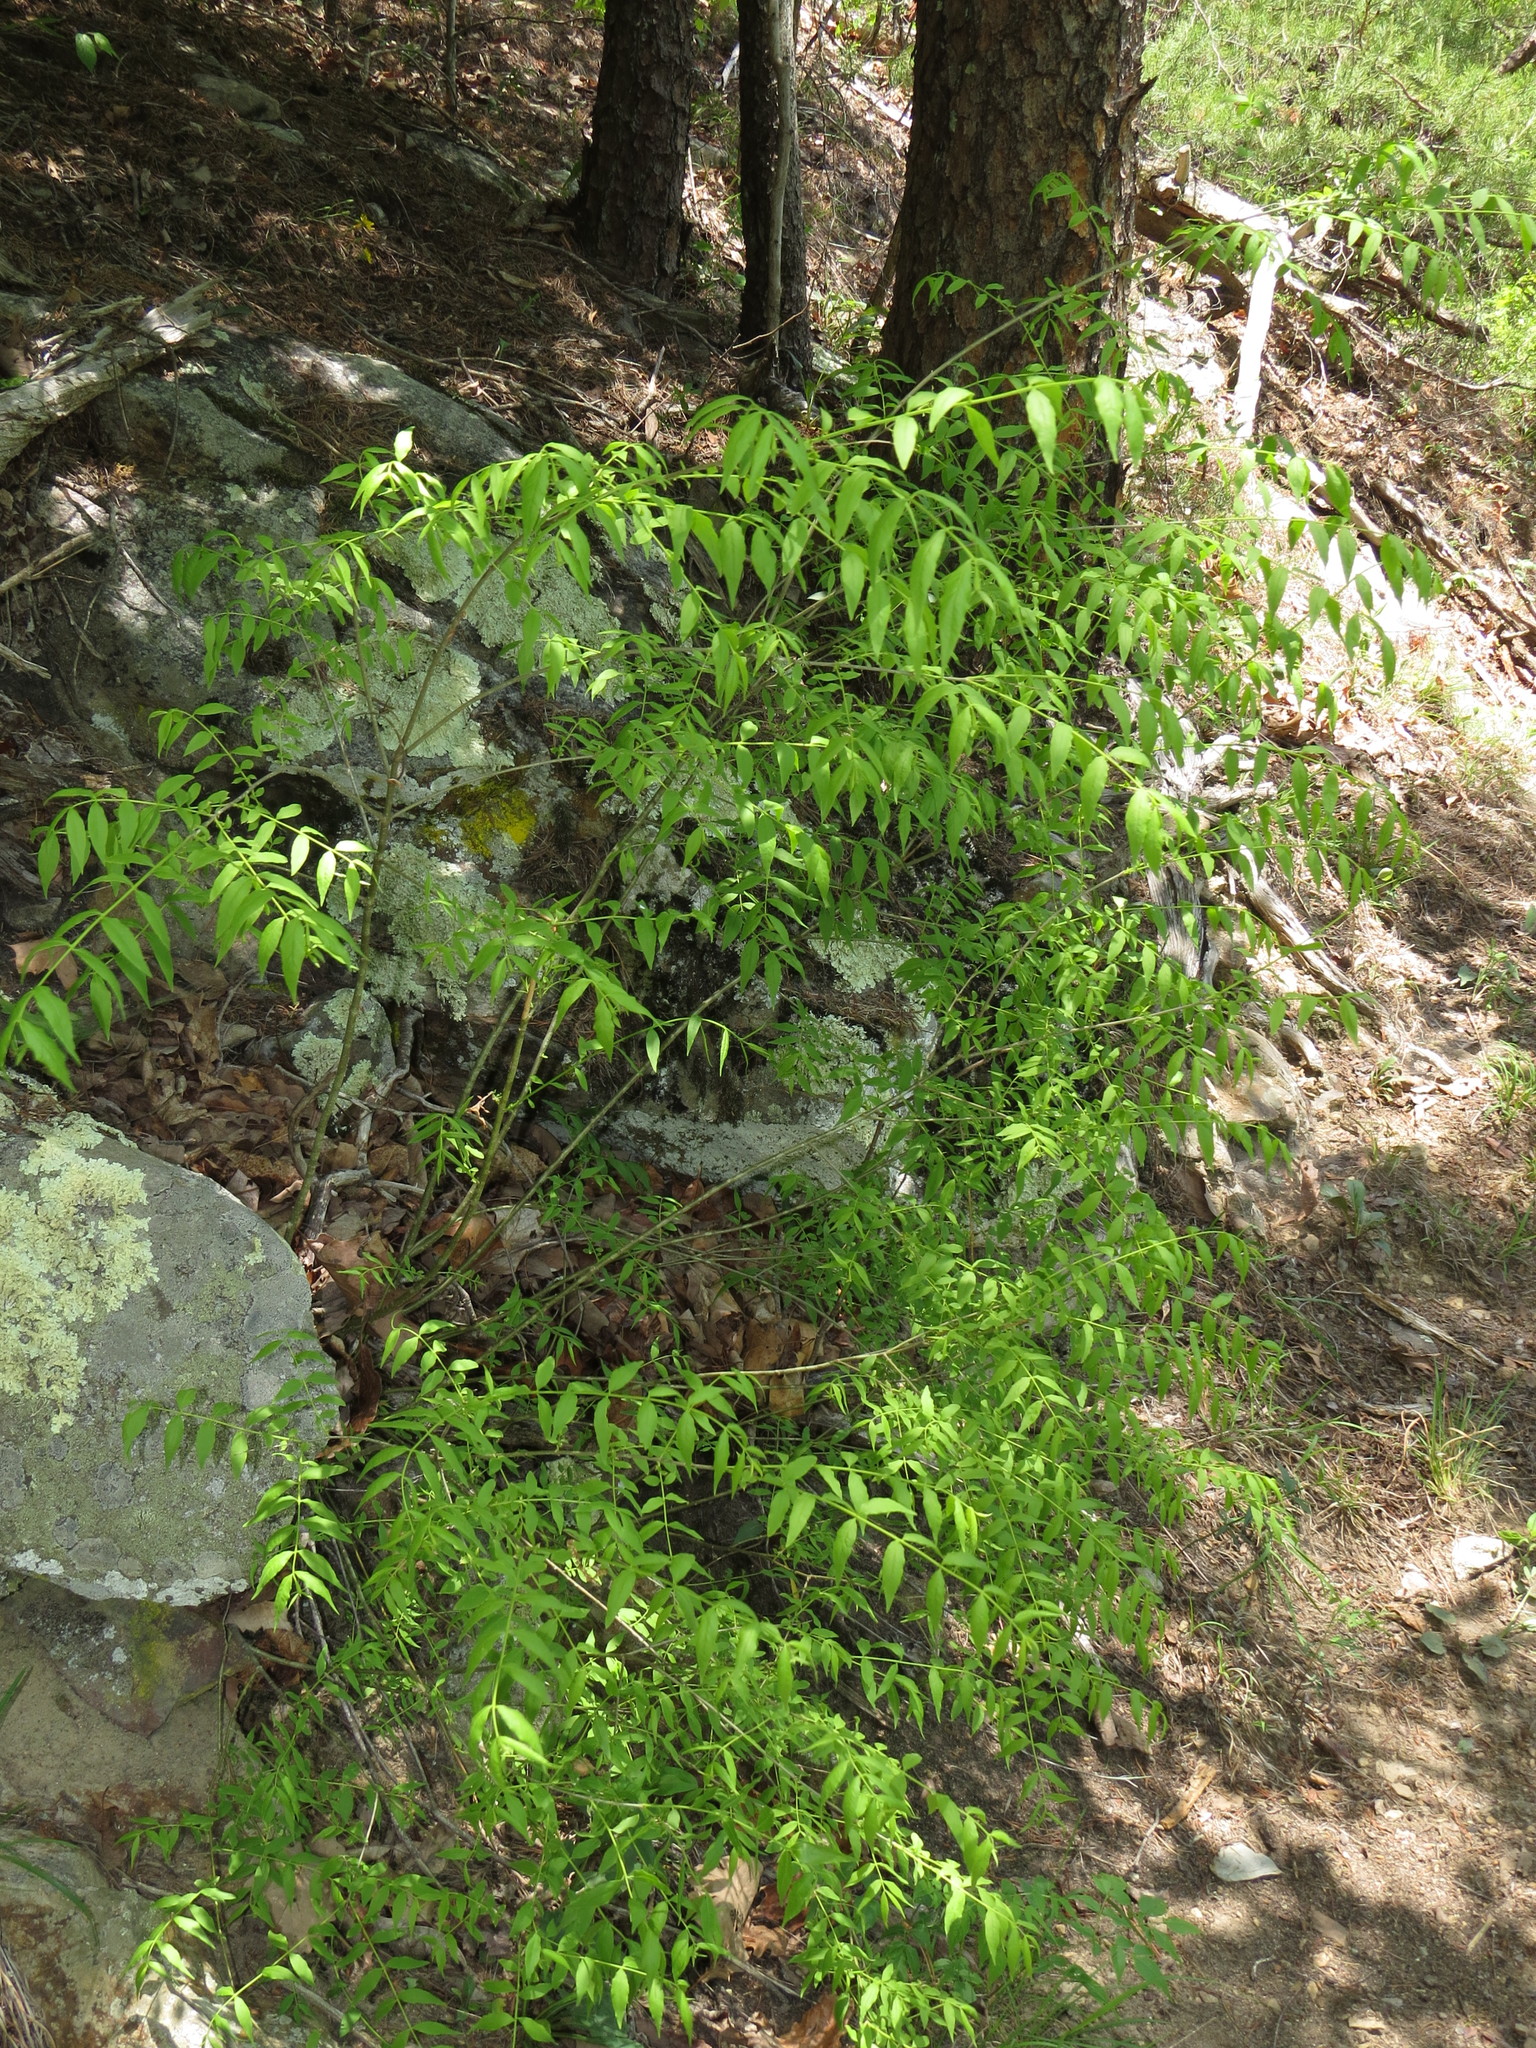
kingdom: Plantae
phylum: Tracheophyta
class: Magnoliopsida
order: Santalales
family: Thesiaceae
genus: Buckleya
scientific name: Buckleya distichophylla
